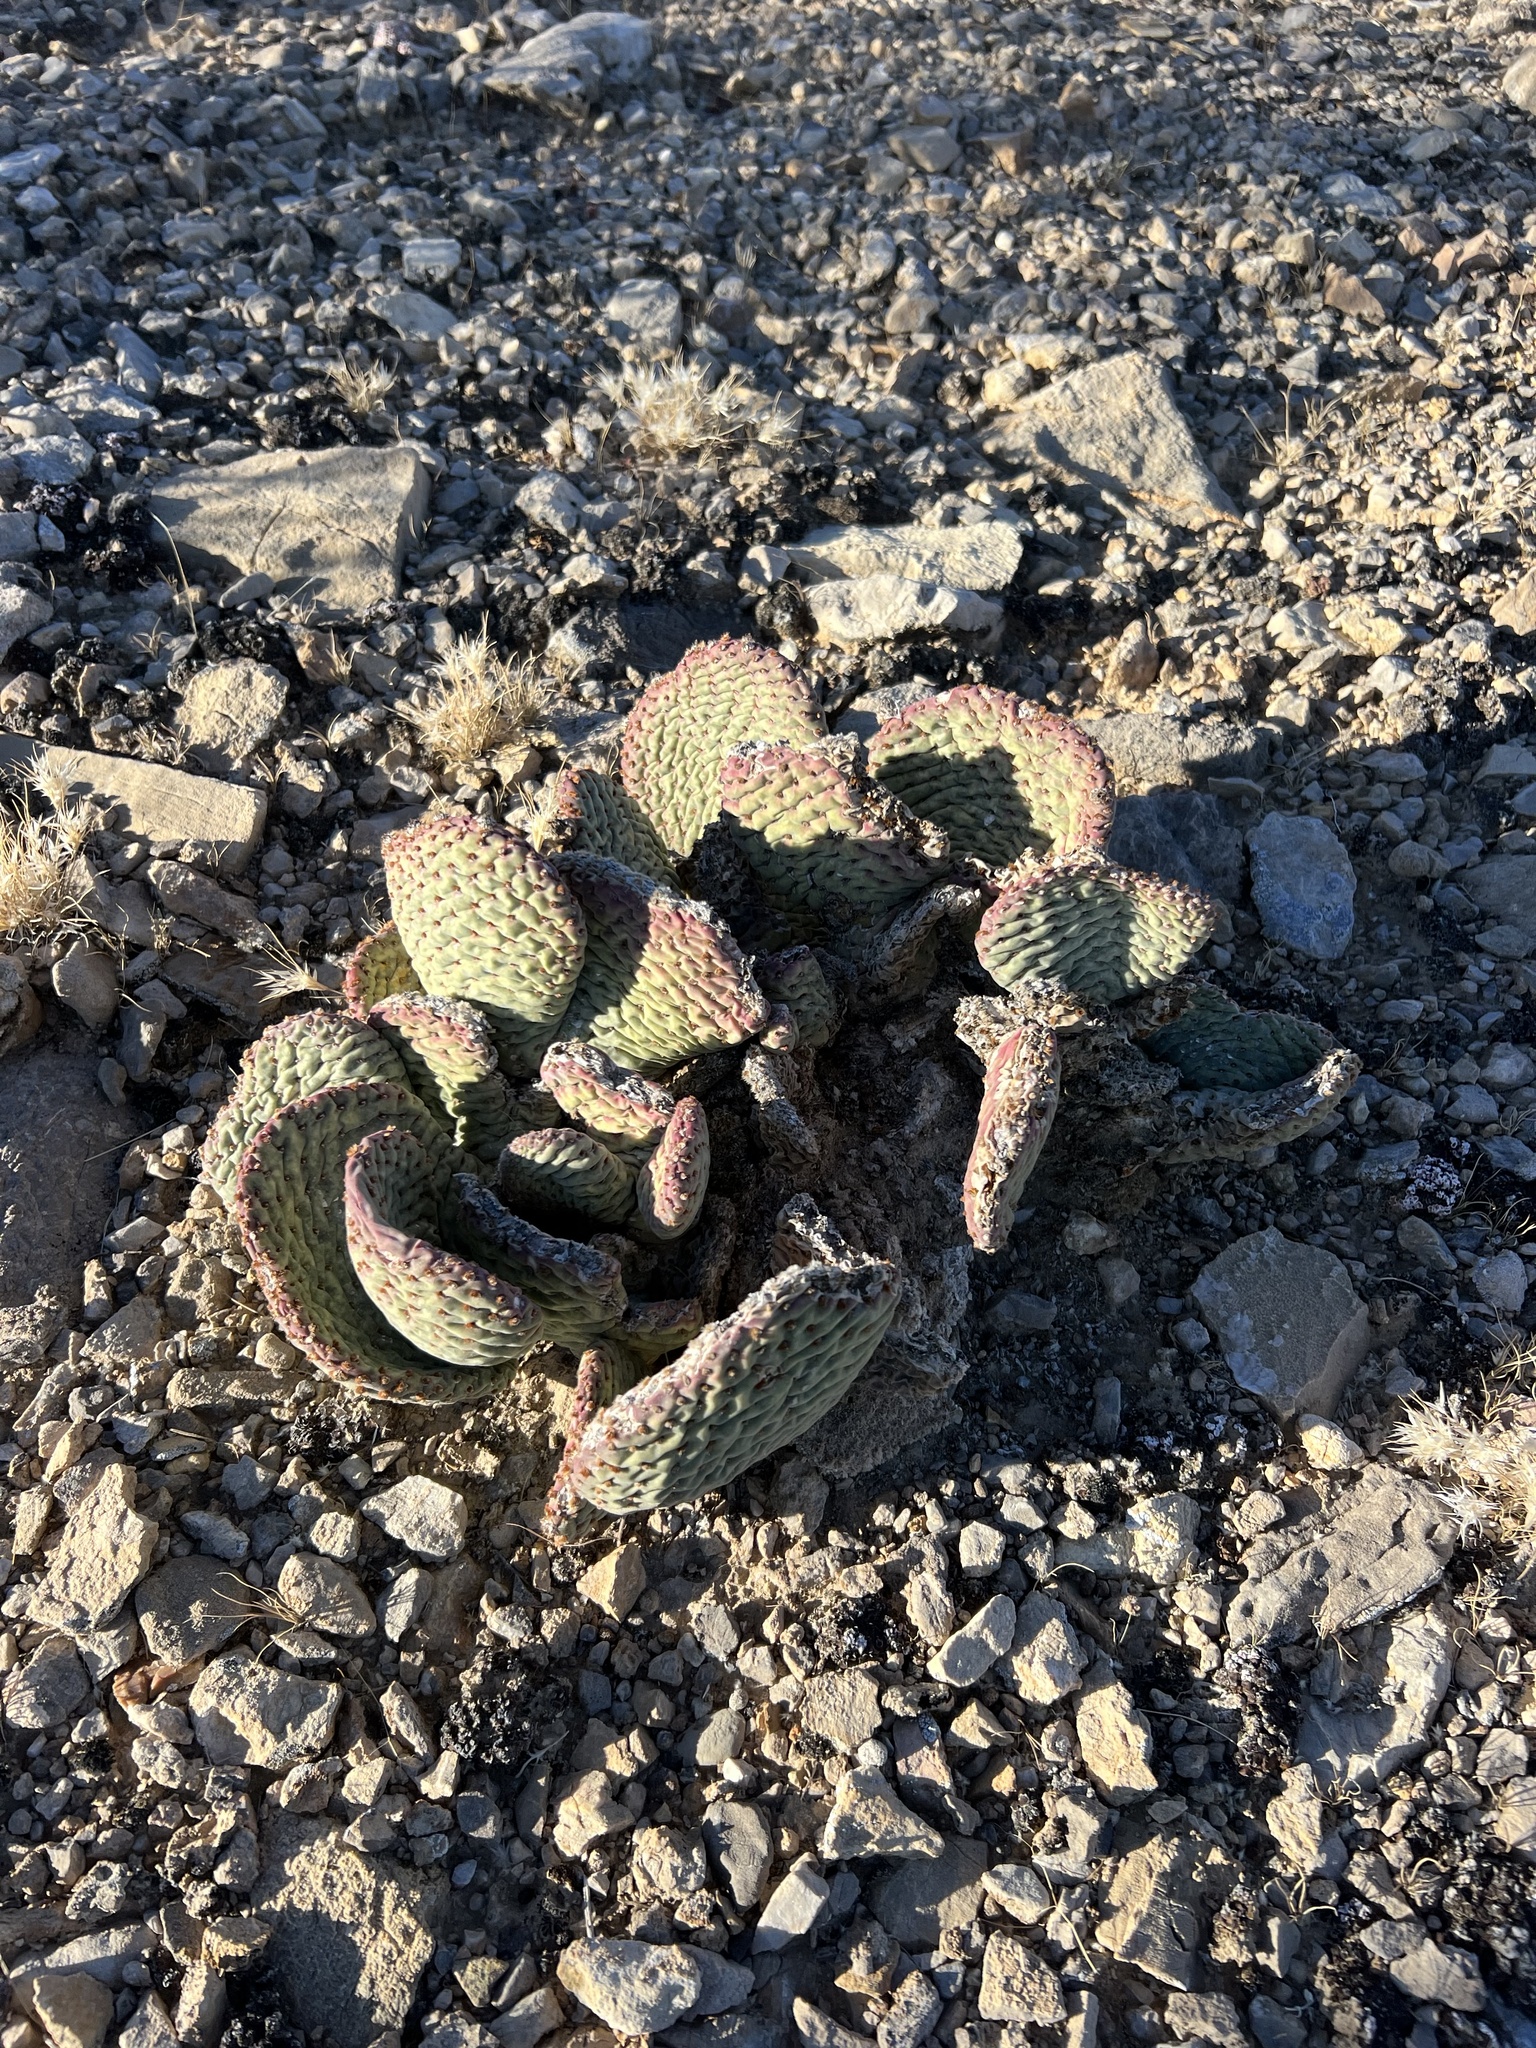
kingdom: Plantae
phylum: Tracheophyta
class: Magnoliopsida
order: Caryophyllales
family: Cactaceae
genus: Opuntia
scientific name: Opuntia basilaris
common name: Beavertail prickly-pear
